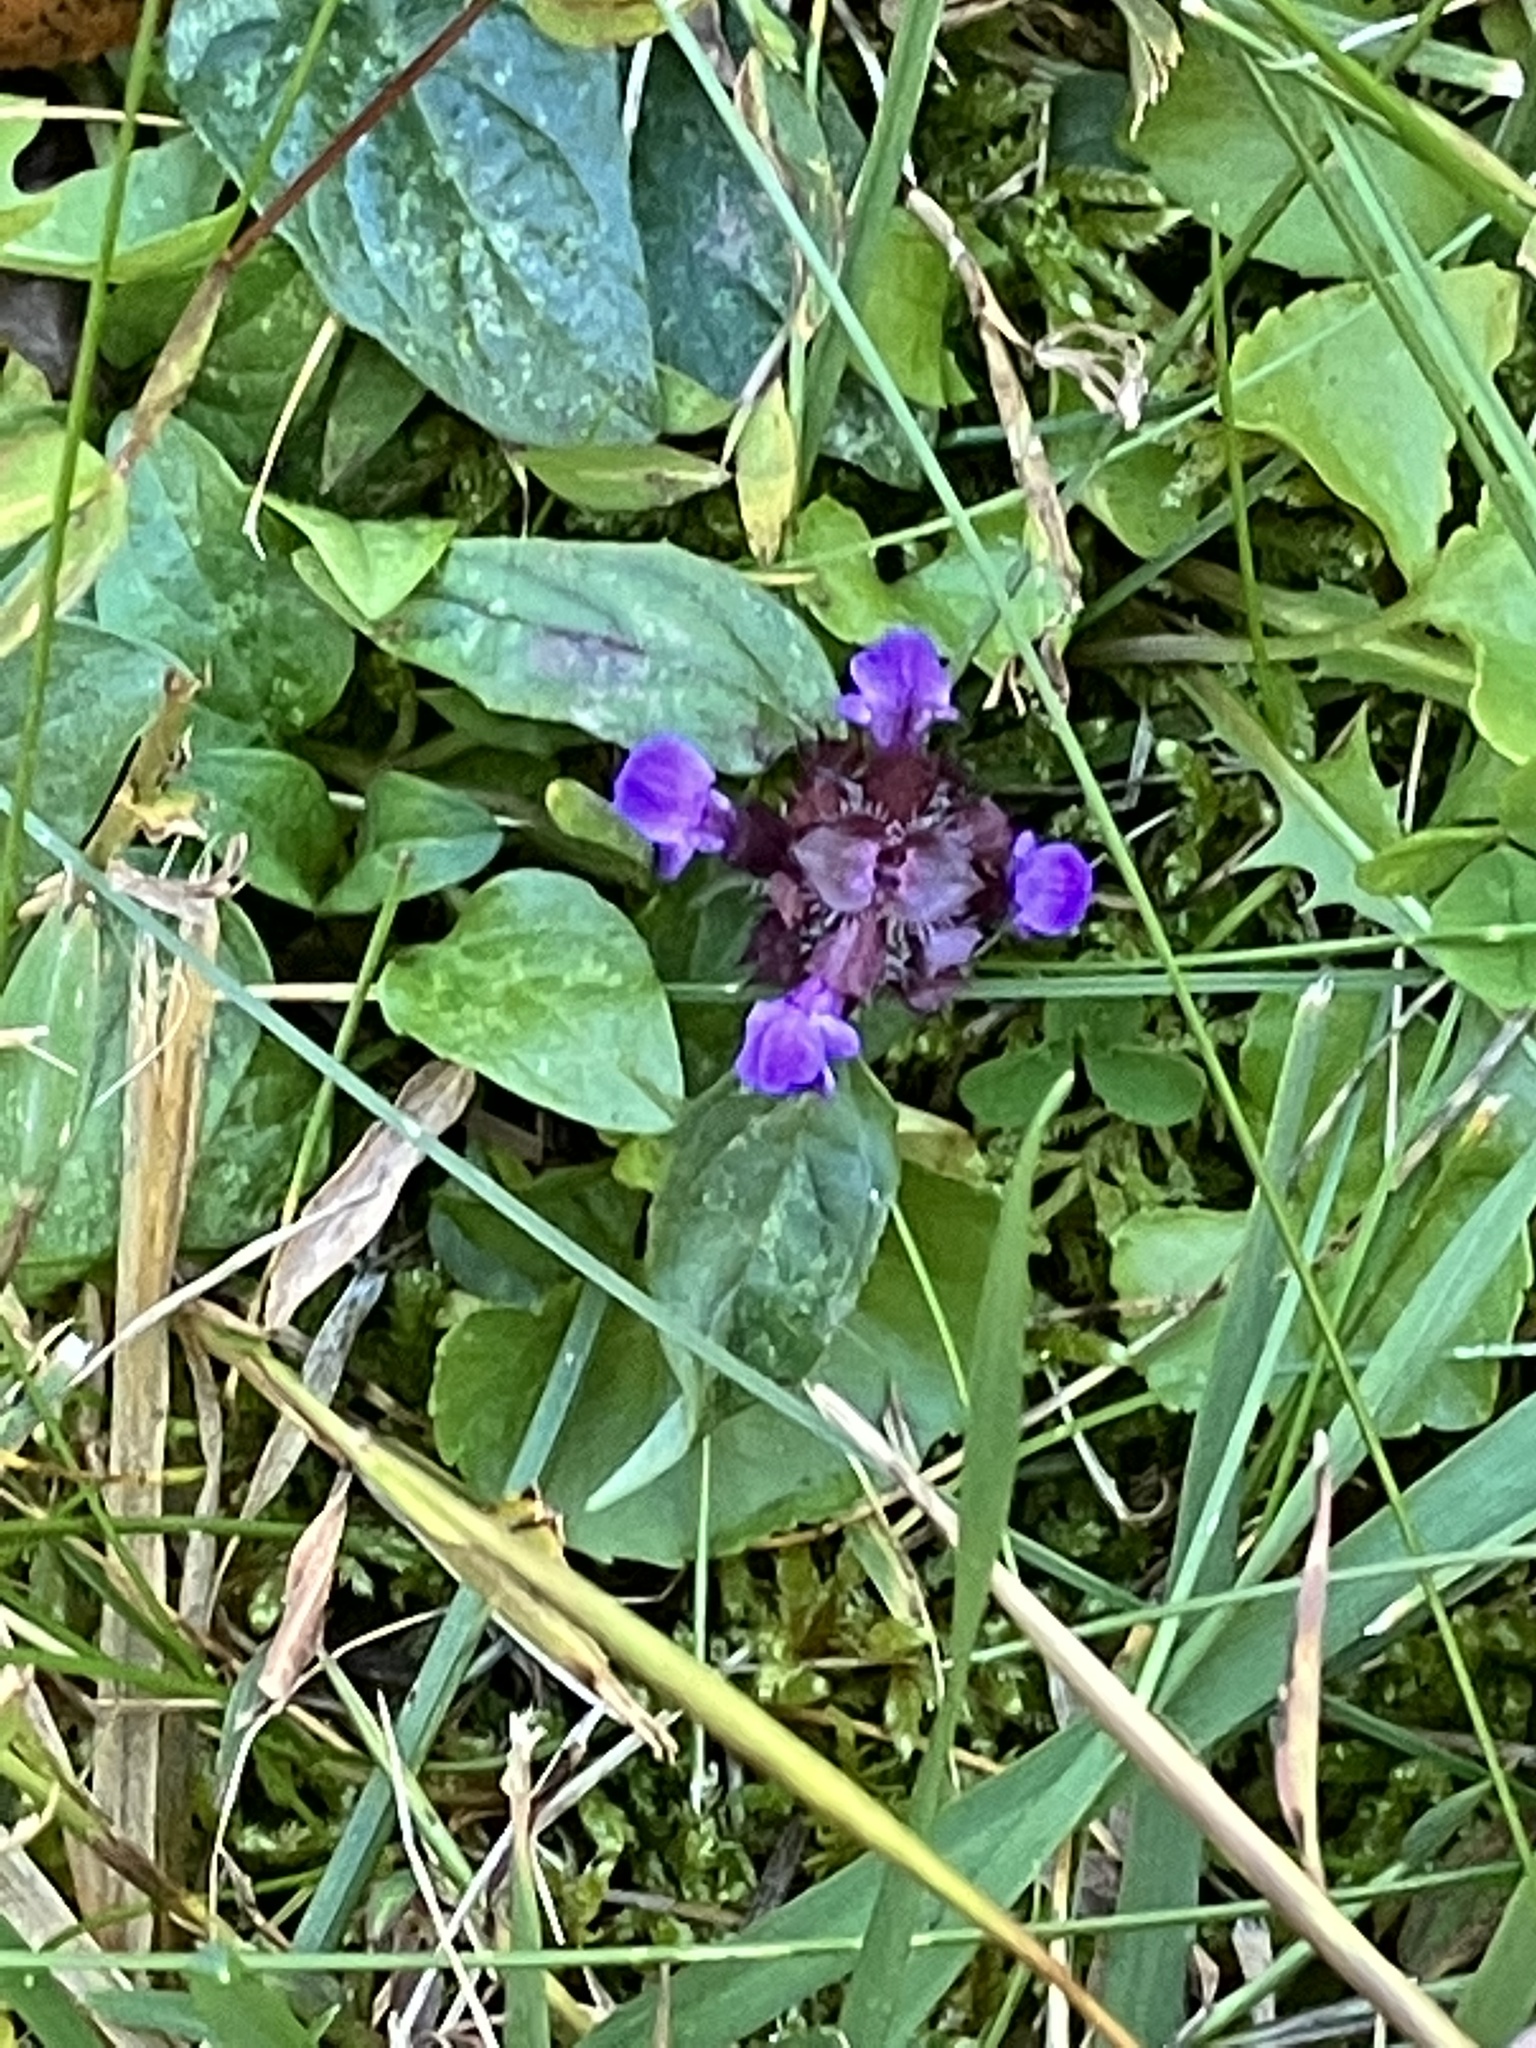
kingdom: Plantae
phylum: Tracheophyta
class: Magnoliopsida
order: Lamiales
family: Lamiaceae
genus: Prunella
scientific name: Prunella vulgaris
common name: Heal-all
